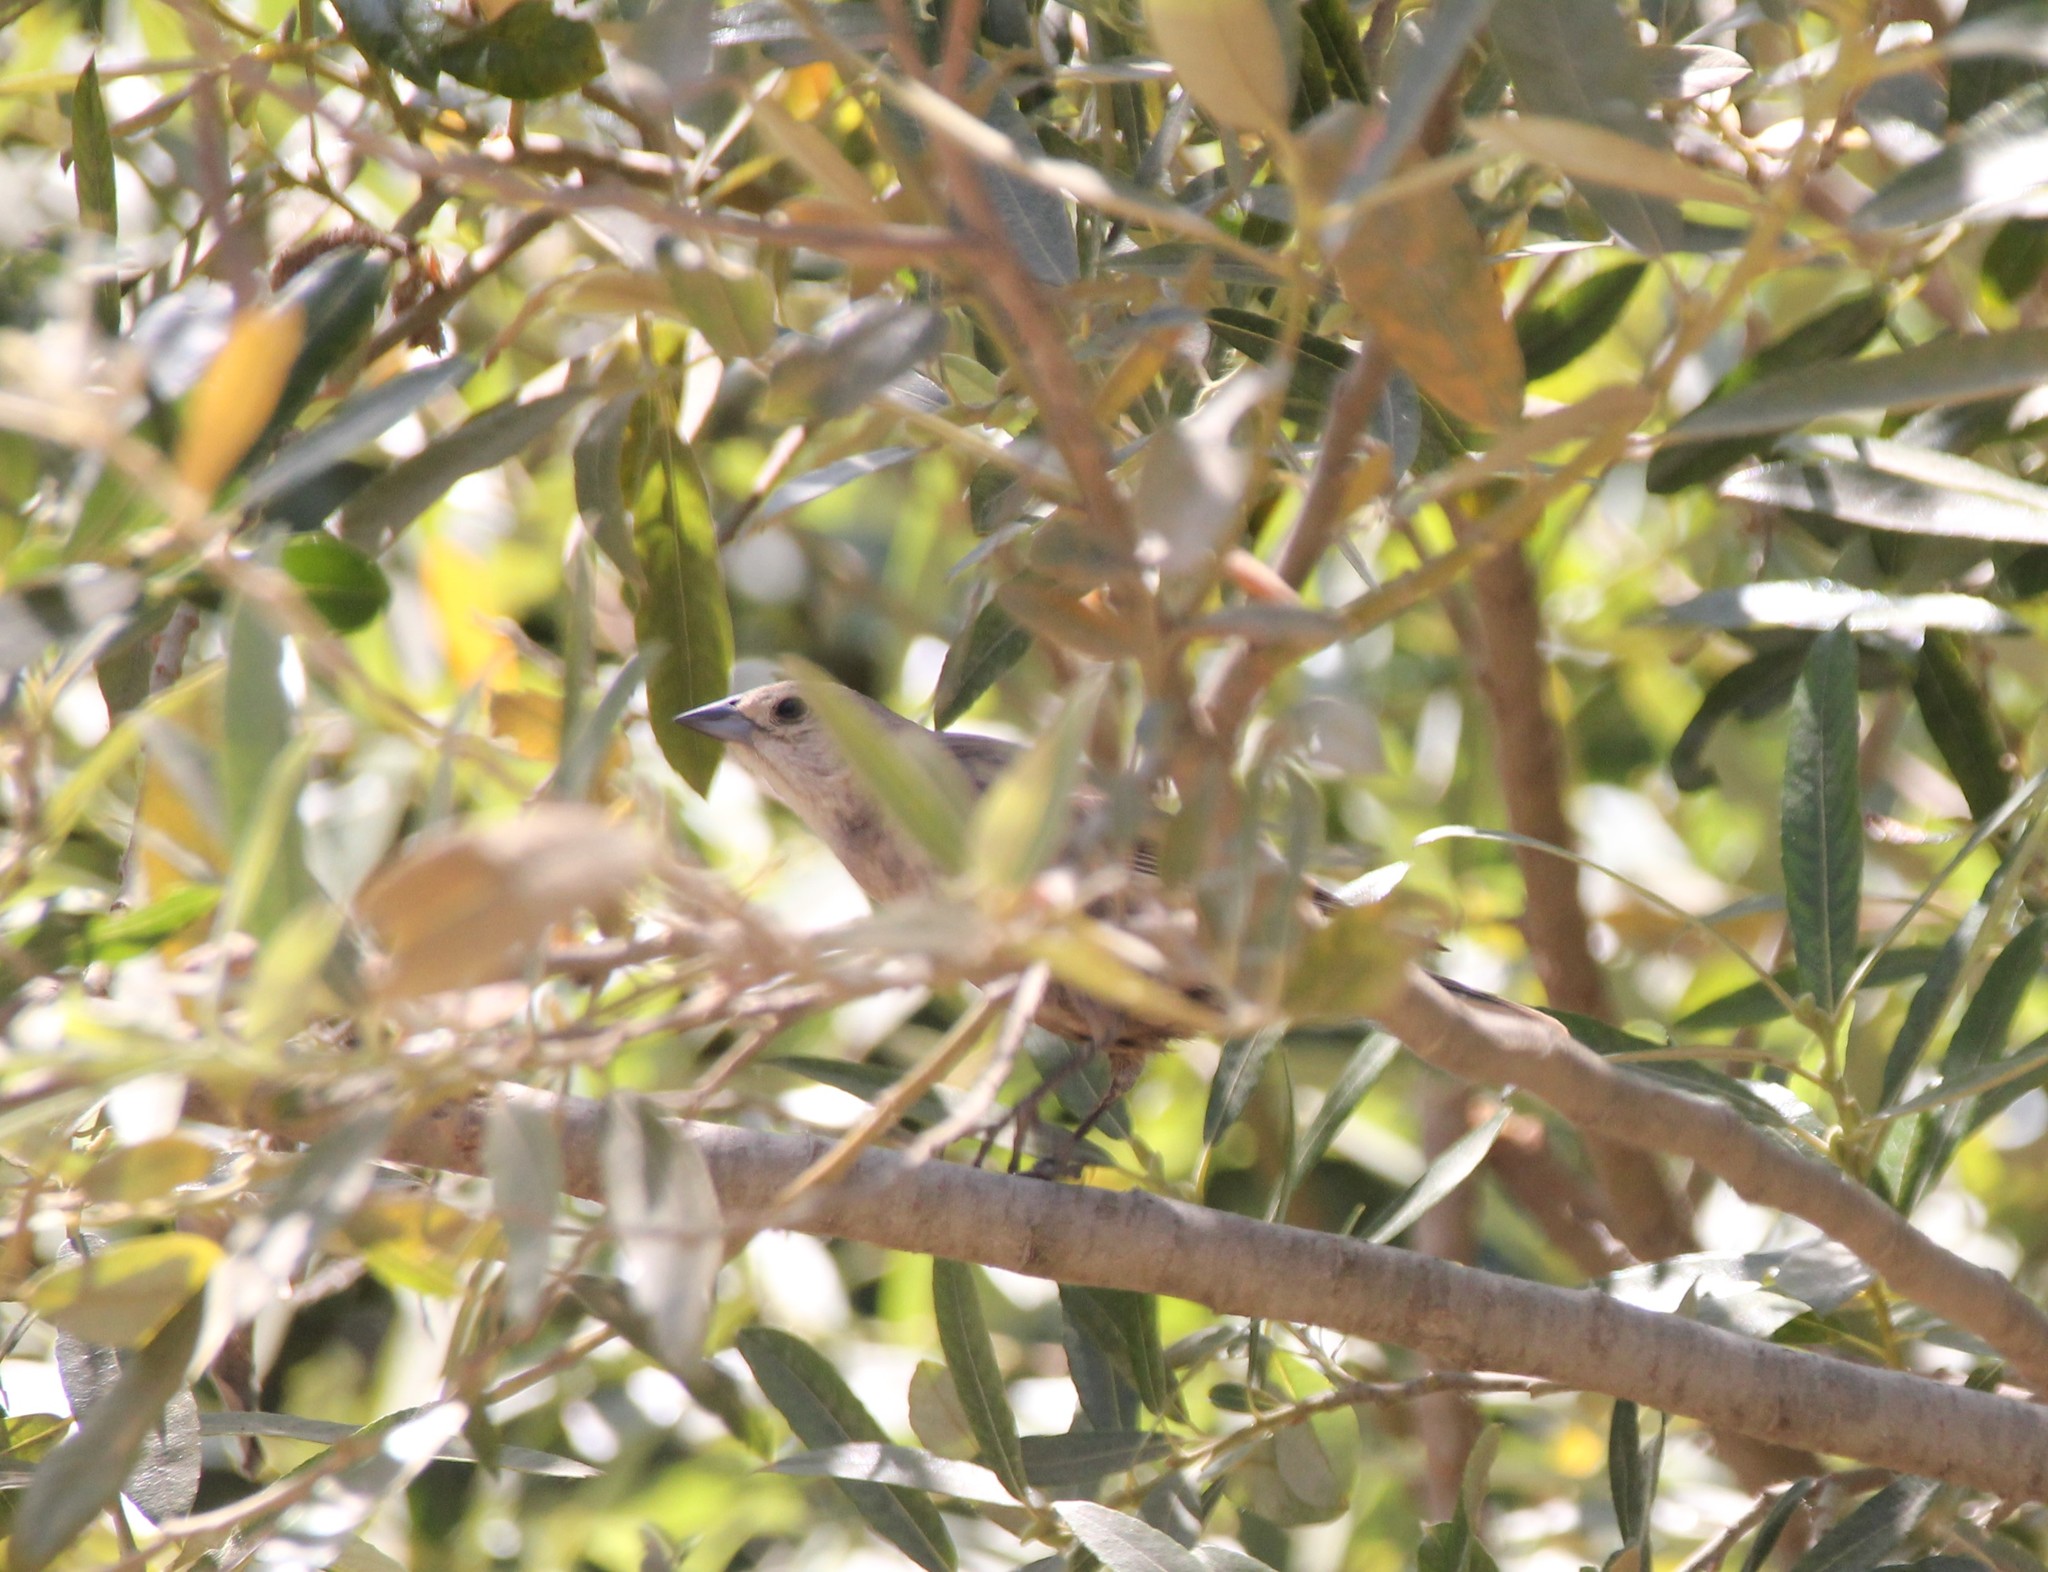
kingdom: Animalia
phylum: Chordata
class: Aves
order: Passeriformes
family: Icteridae
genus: Molothrus
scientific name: Molothrus ater
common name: Brown-headed cowbird
